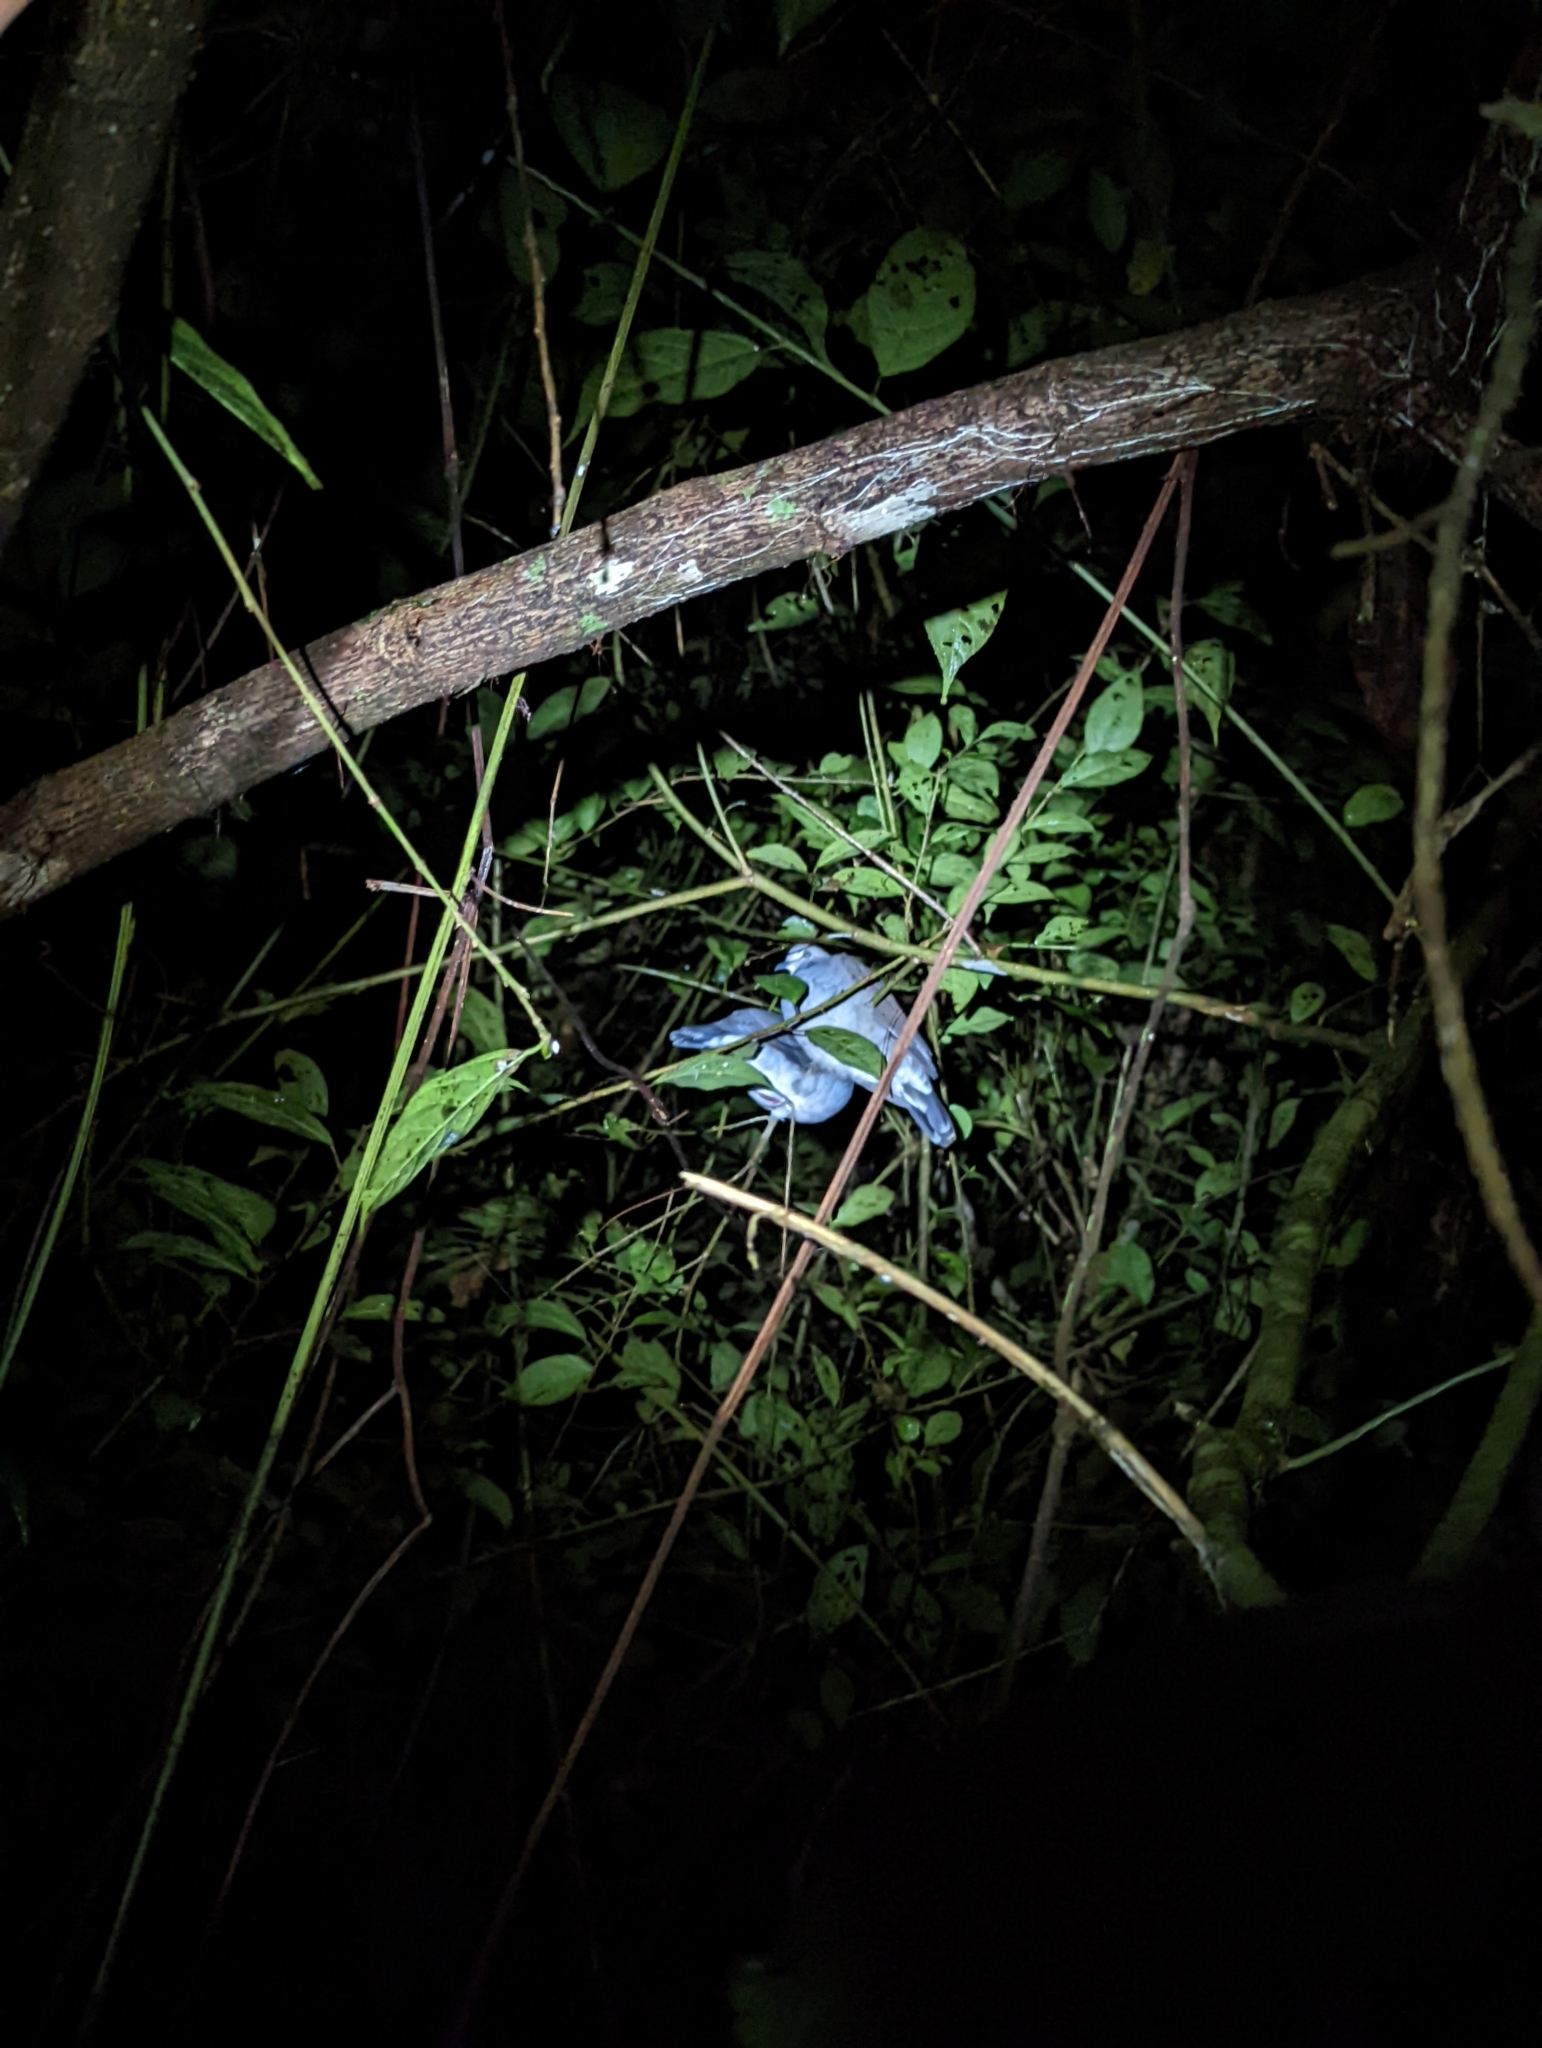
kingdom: Animalia
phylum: Chordata
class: Aves
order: Columbiformes
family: Columbidae
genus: Leptotila
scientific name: Leptotila verreauxi
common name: White-tipped dove
